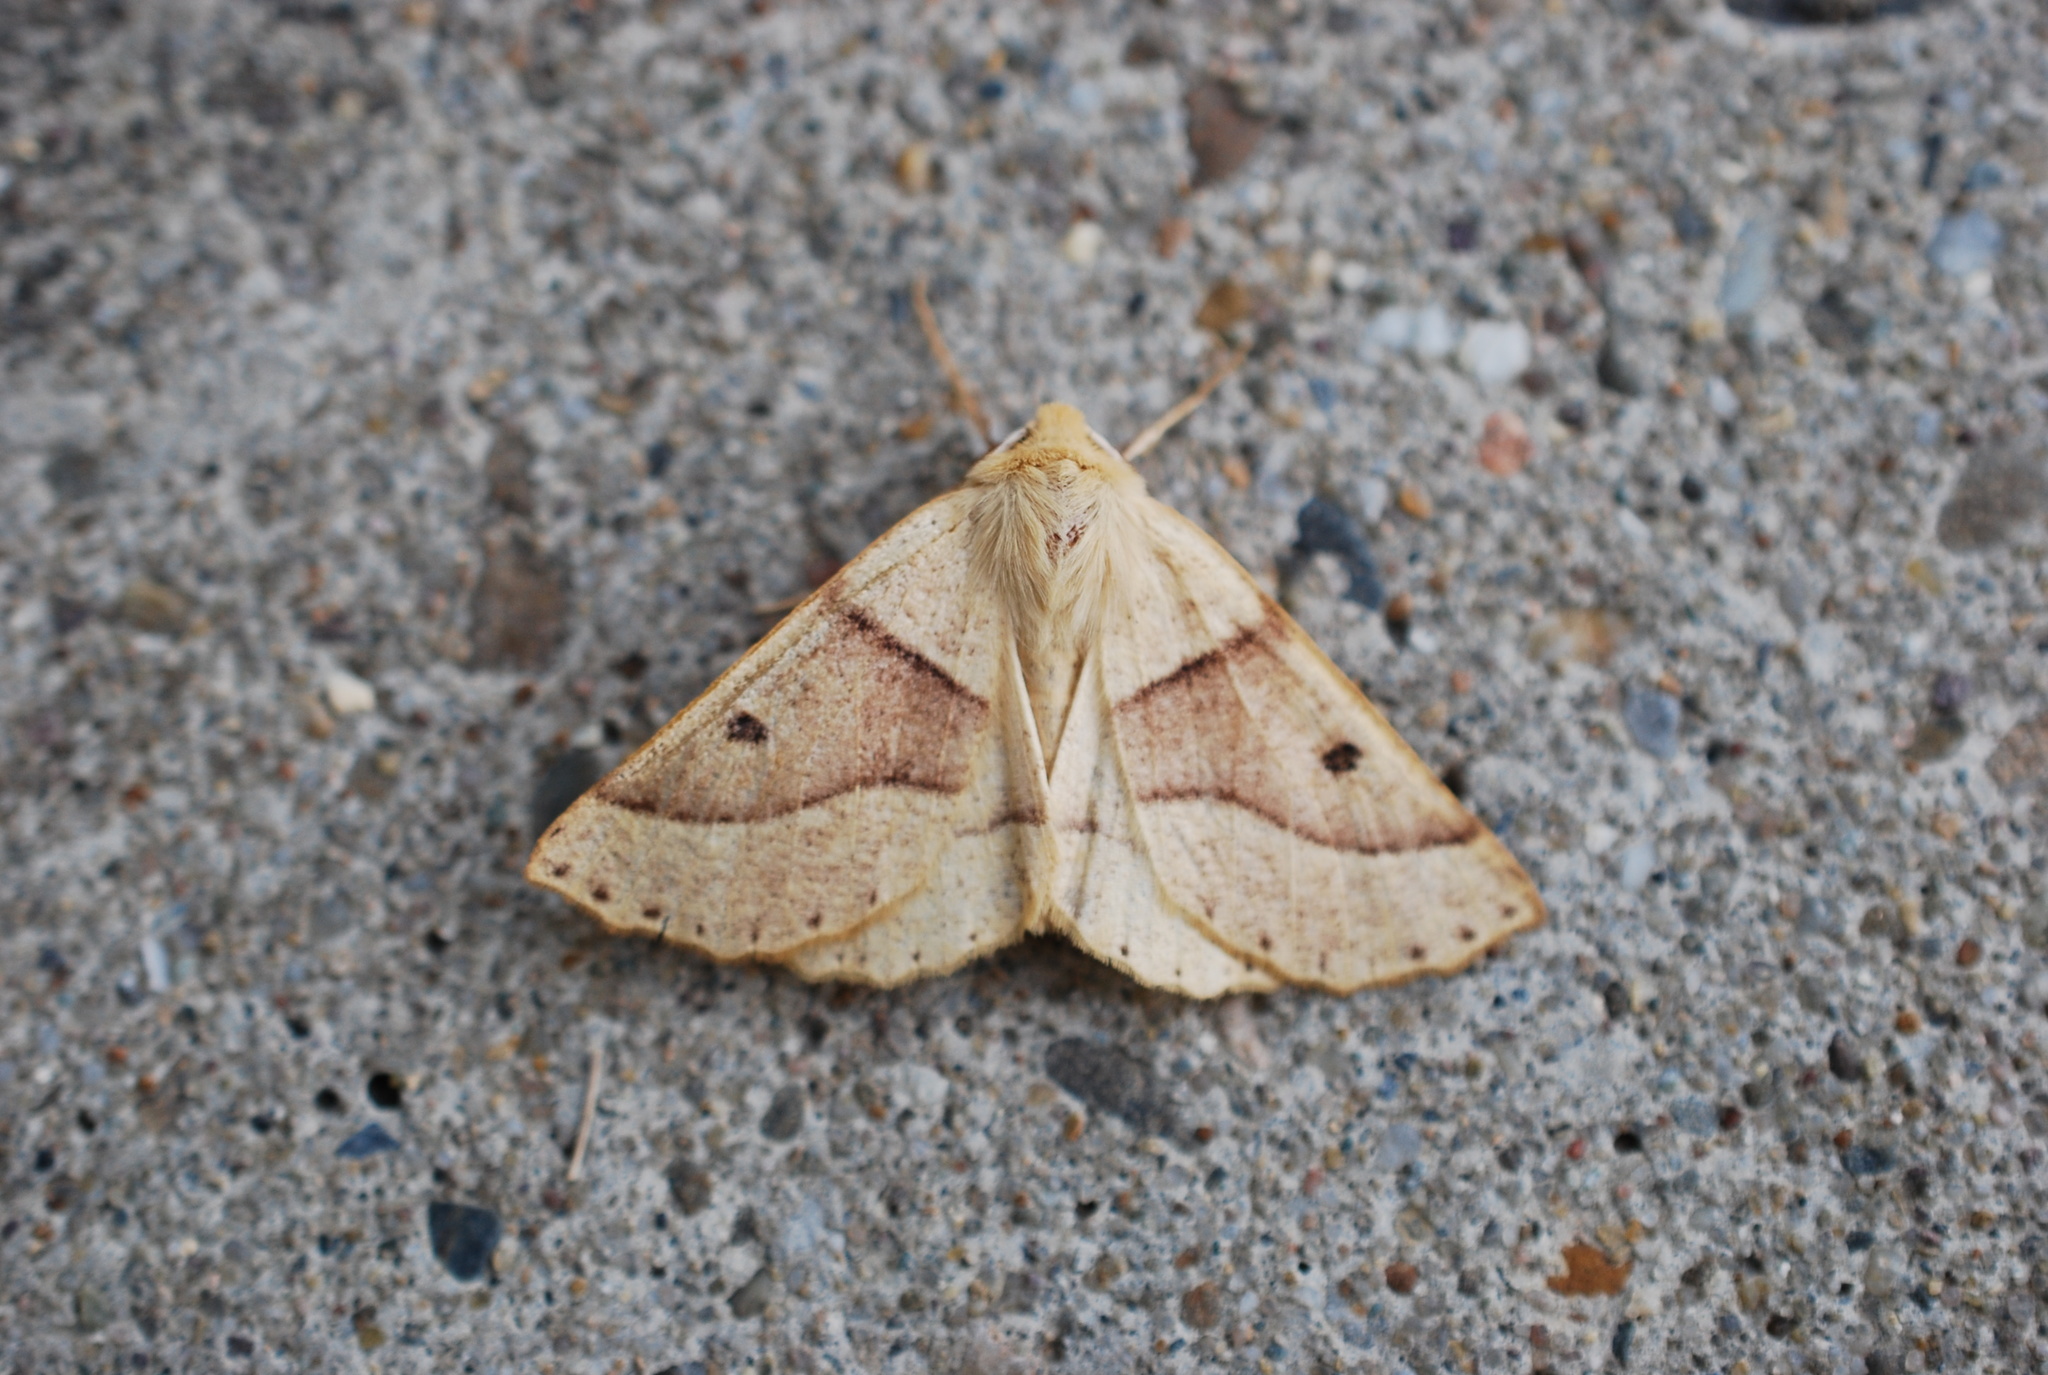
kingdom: Animalia
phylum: Arthropoda
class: Insecta
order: Lepidoptera
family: Geometridae
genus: Crocallis
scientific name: Crocallis elinguaria
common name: Scalloped oak
